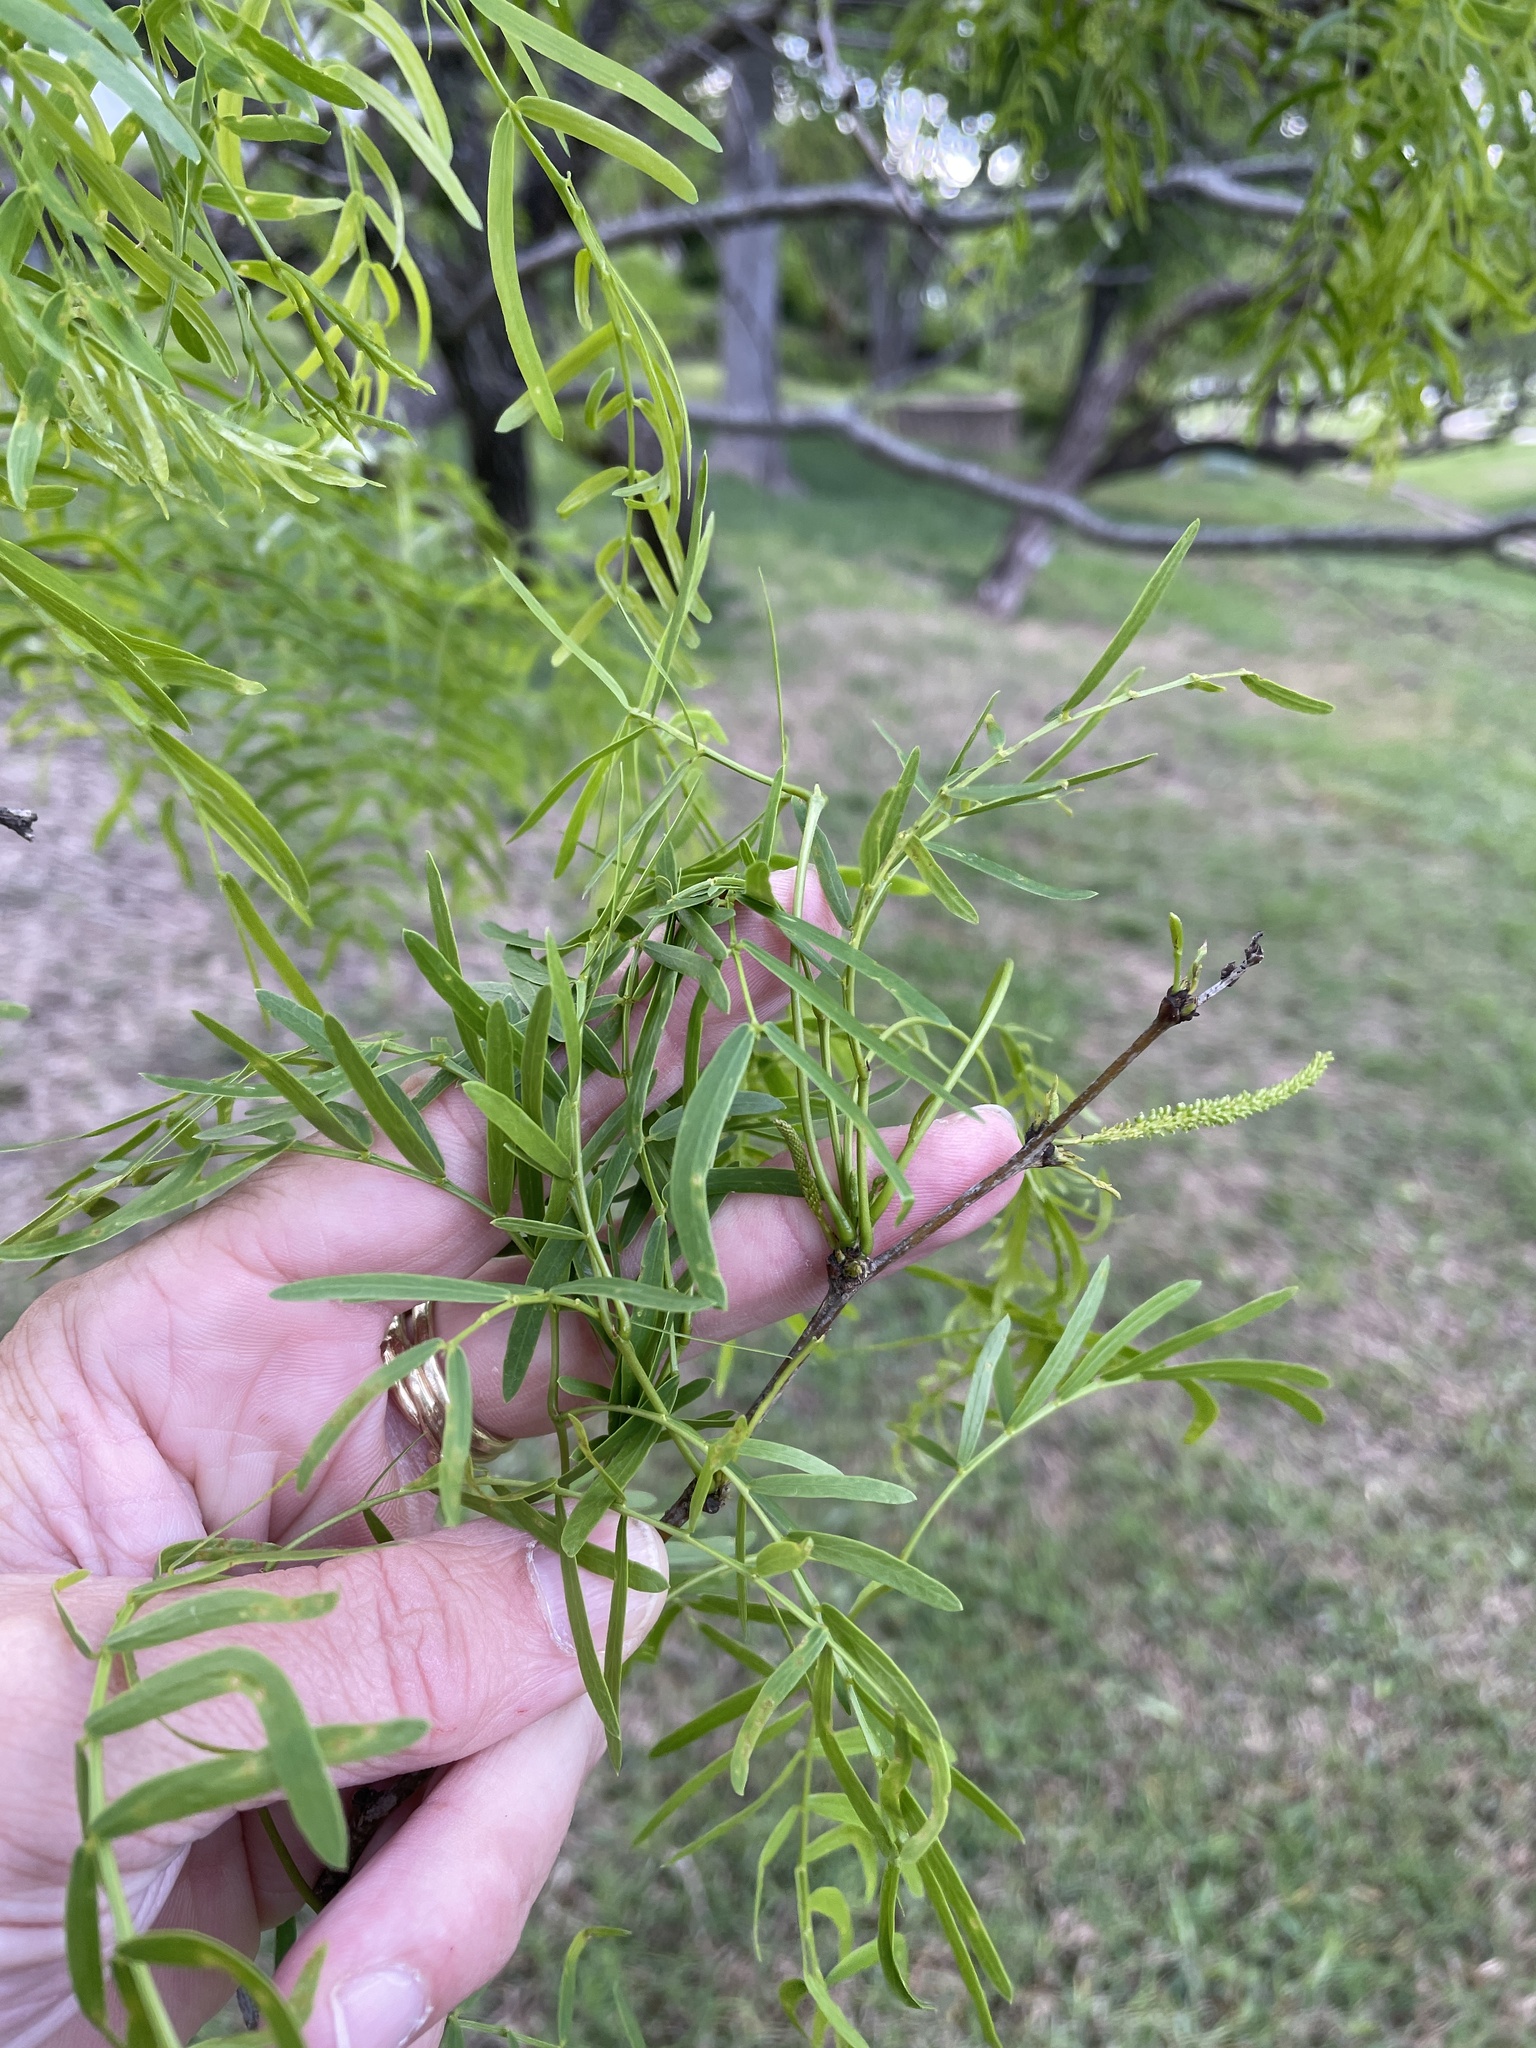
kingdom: Plantae
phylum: Tracheophyta
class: Magnoliopsida
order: Fabales
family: Fabaceae
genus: Prosopis
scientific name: Prosopis glandulosa
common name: Honey mesquite
